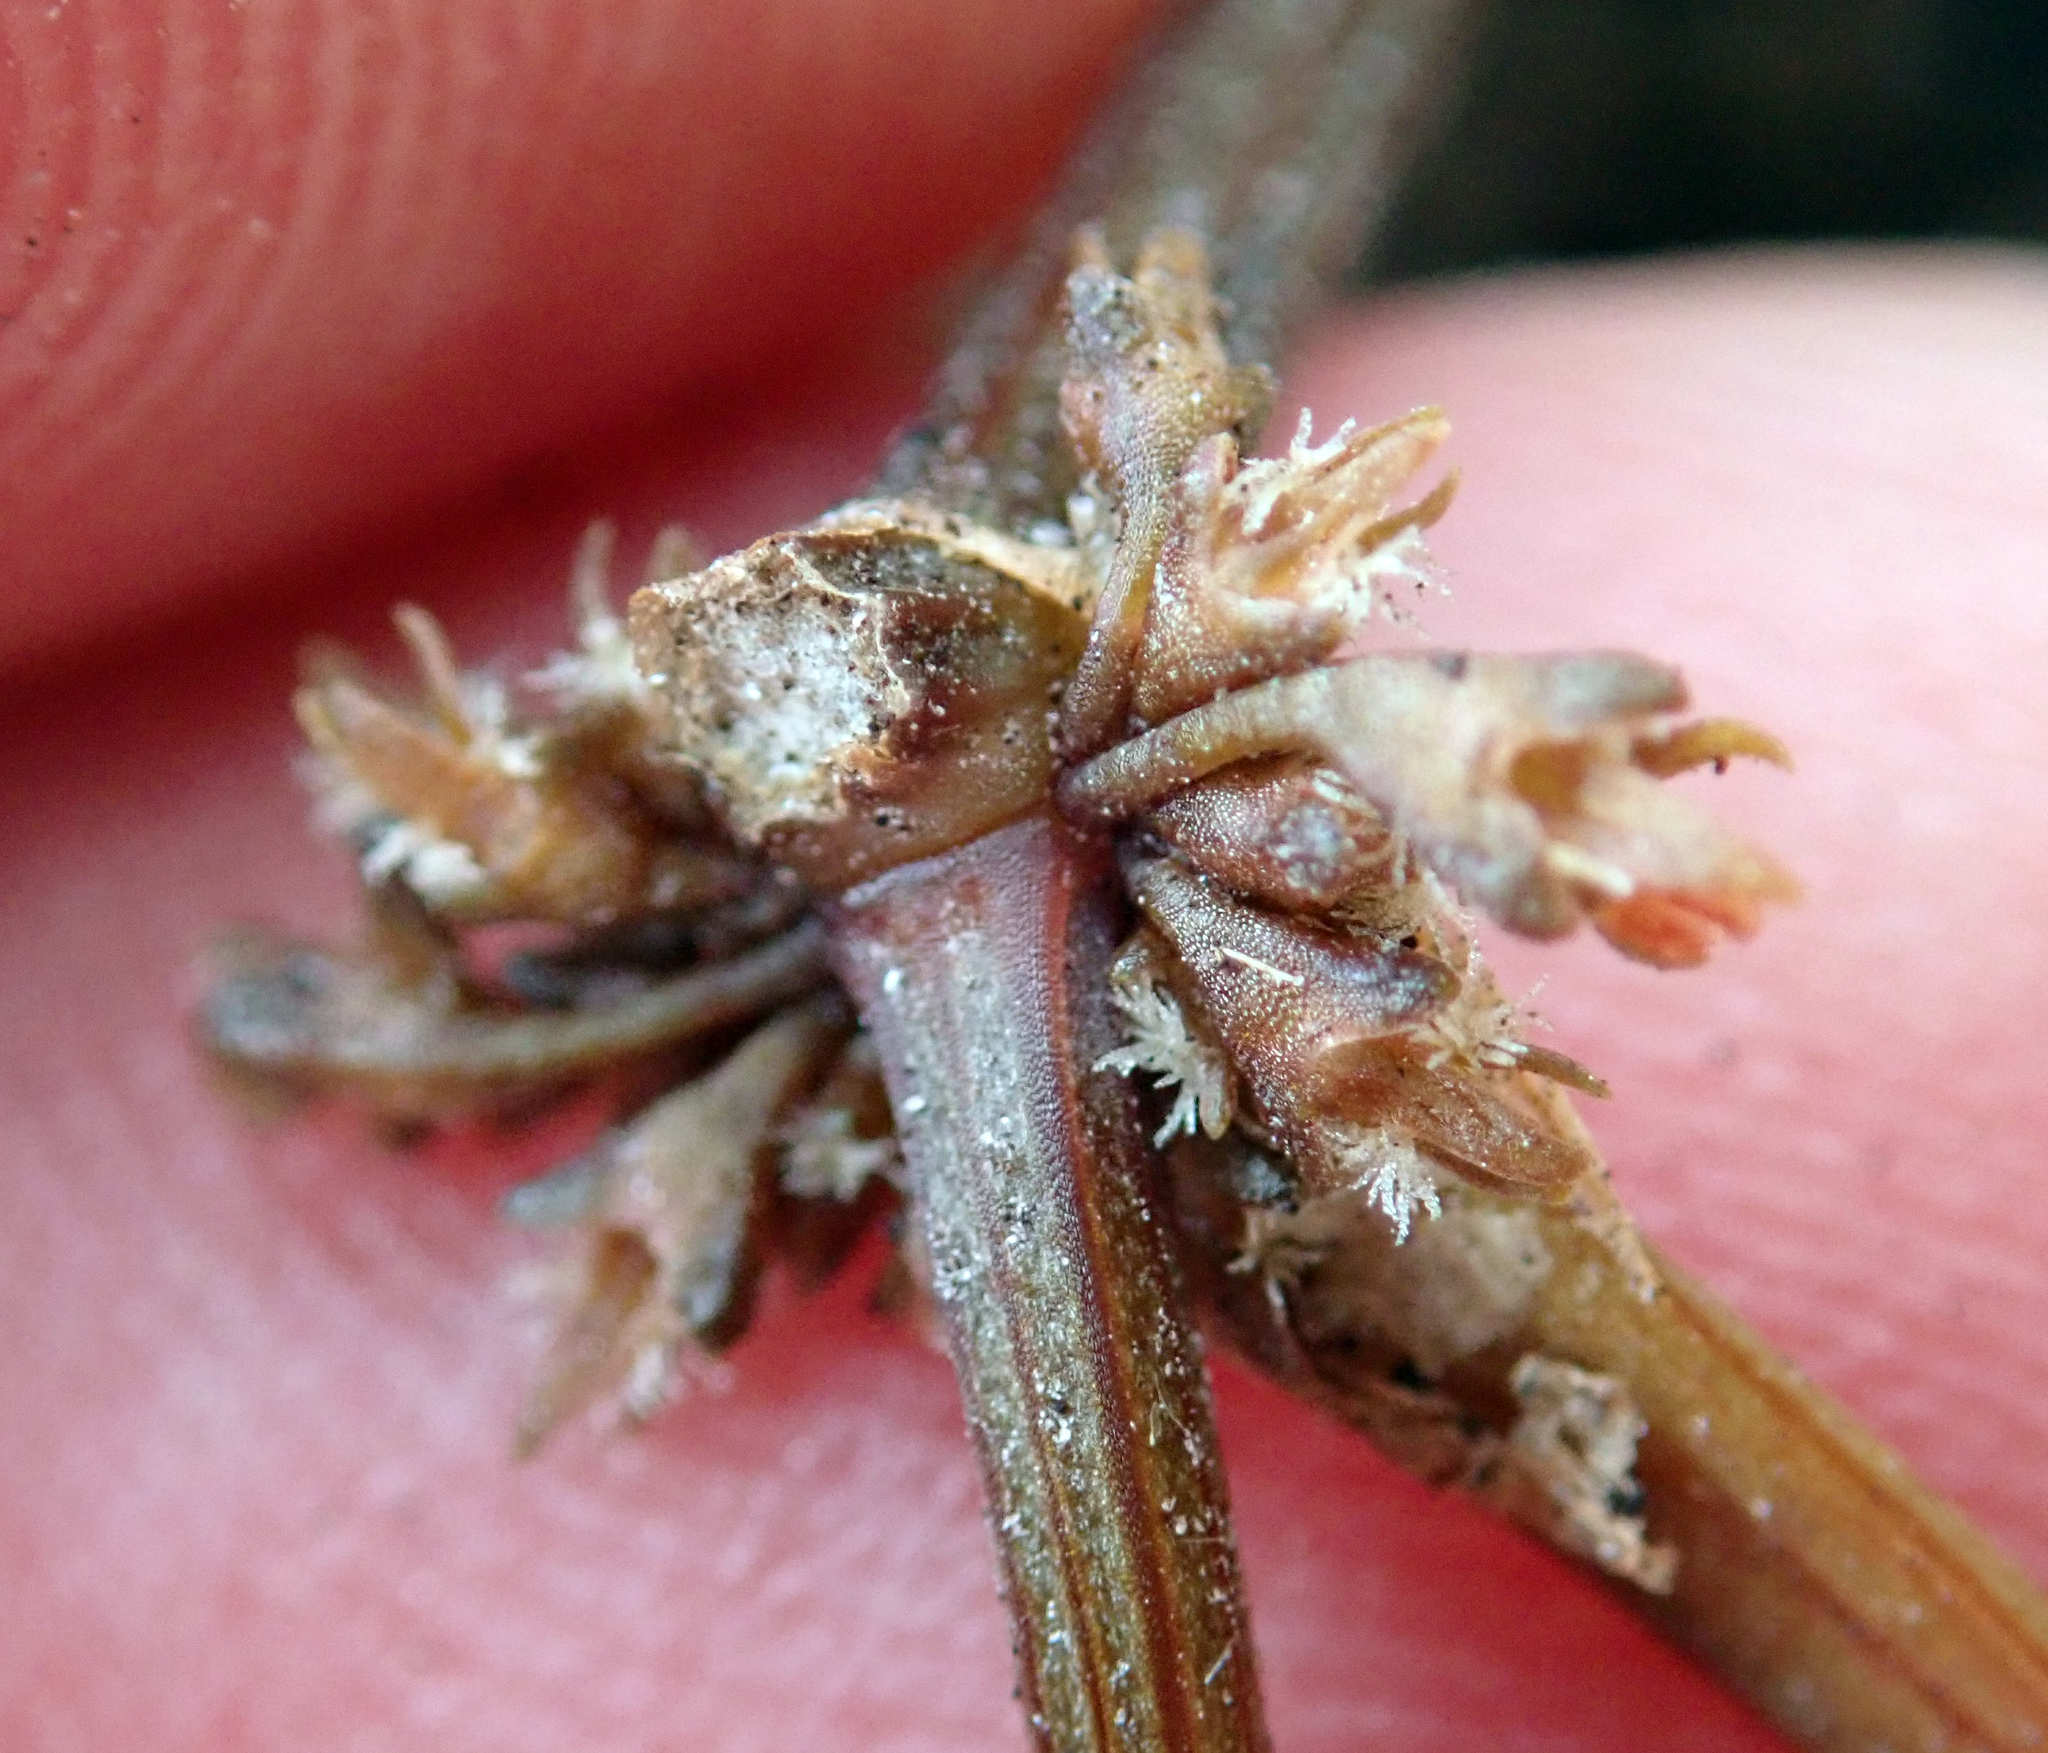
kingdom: Plantae
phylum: Tracheophyta
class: Magnoliopsida
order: Caryophyllales
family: Polygonaceae
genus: Rumex
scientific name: Rumex flexuosus
